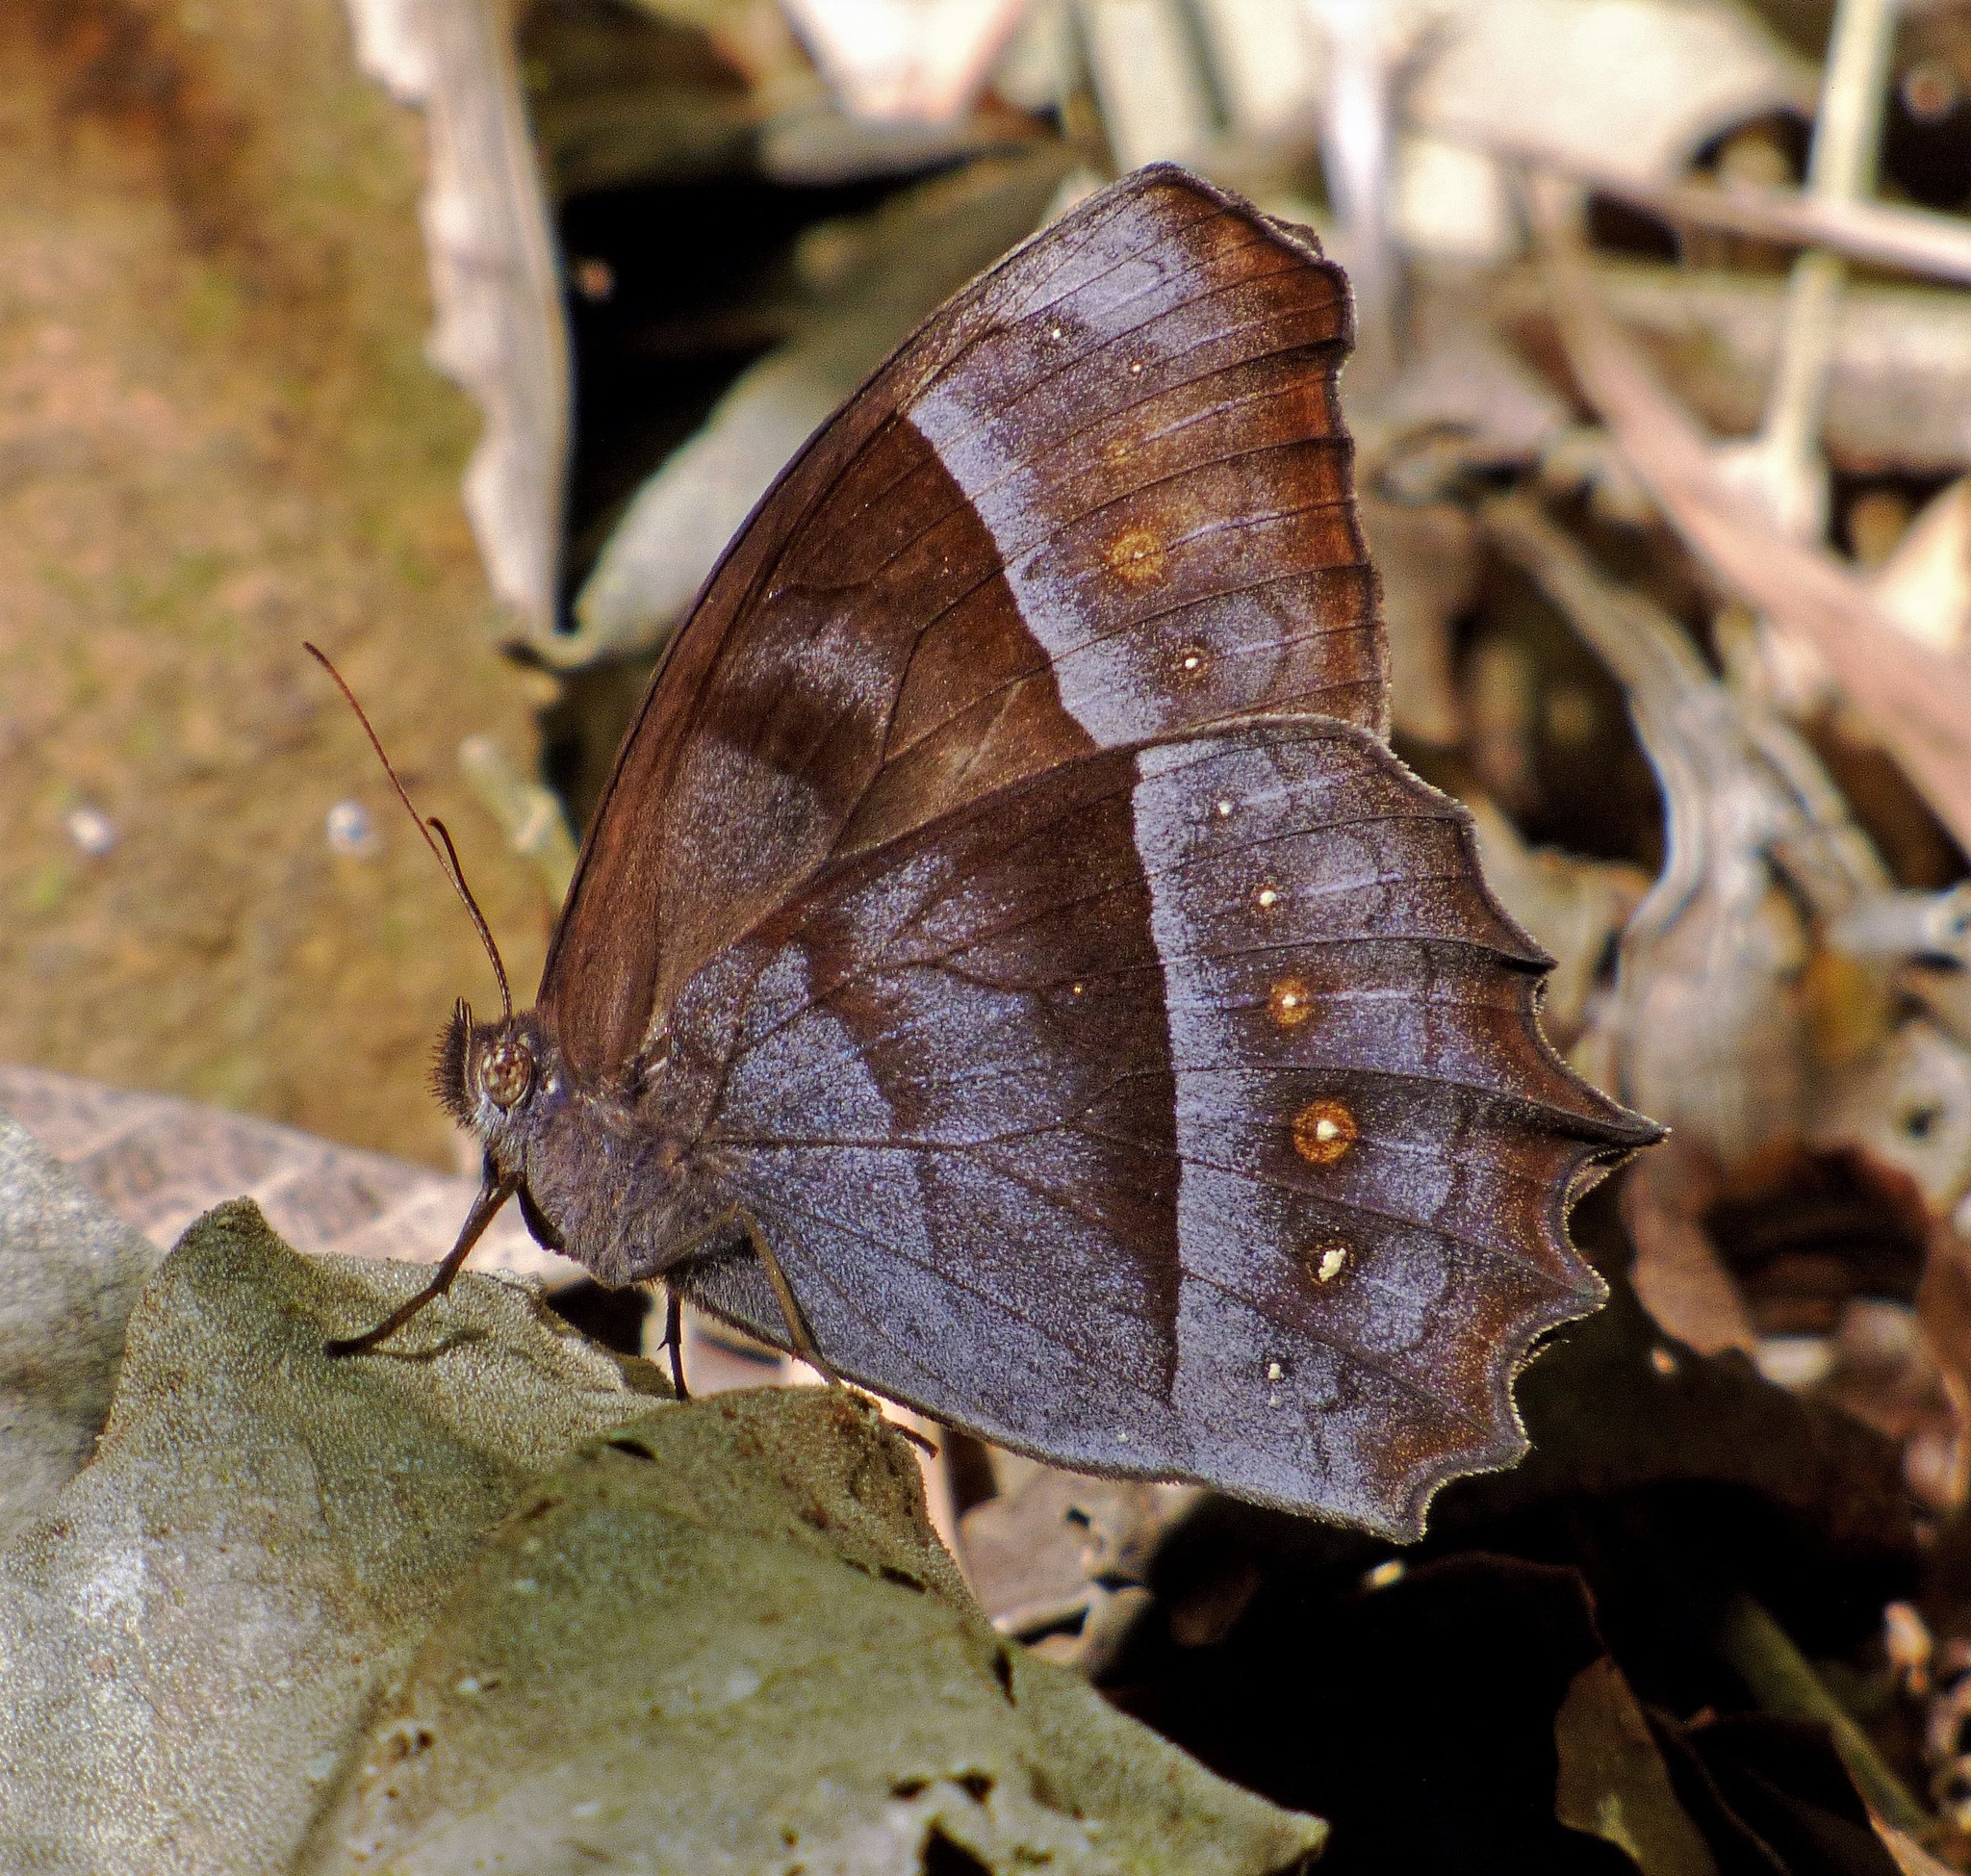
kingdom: Animalia
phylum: Arthropoda
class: Insecta
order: Lepidoptera
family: Nymphalidae
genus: Taygetis
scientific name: Taygetis thamyra
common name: Thamyra satyr
